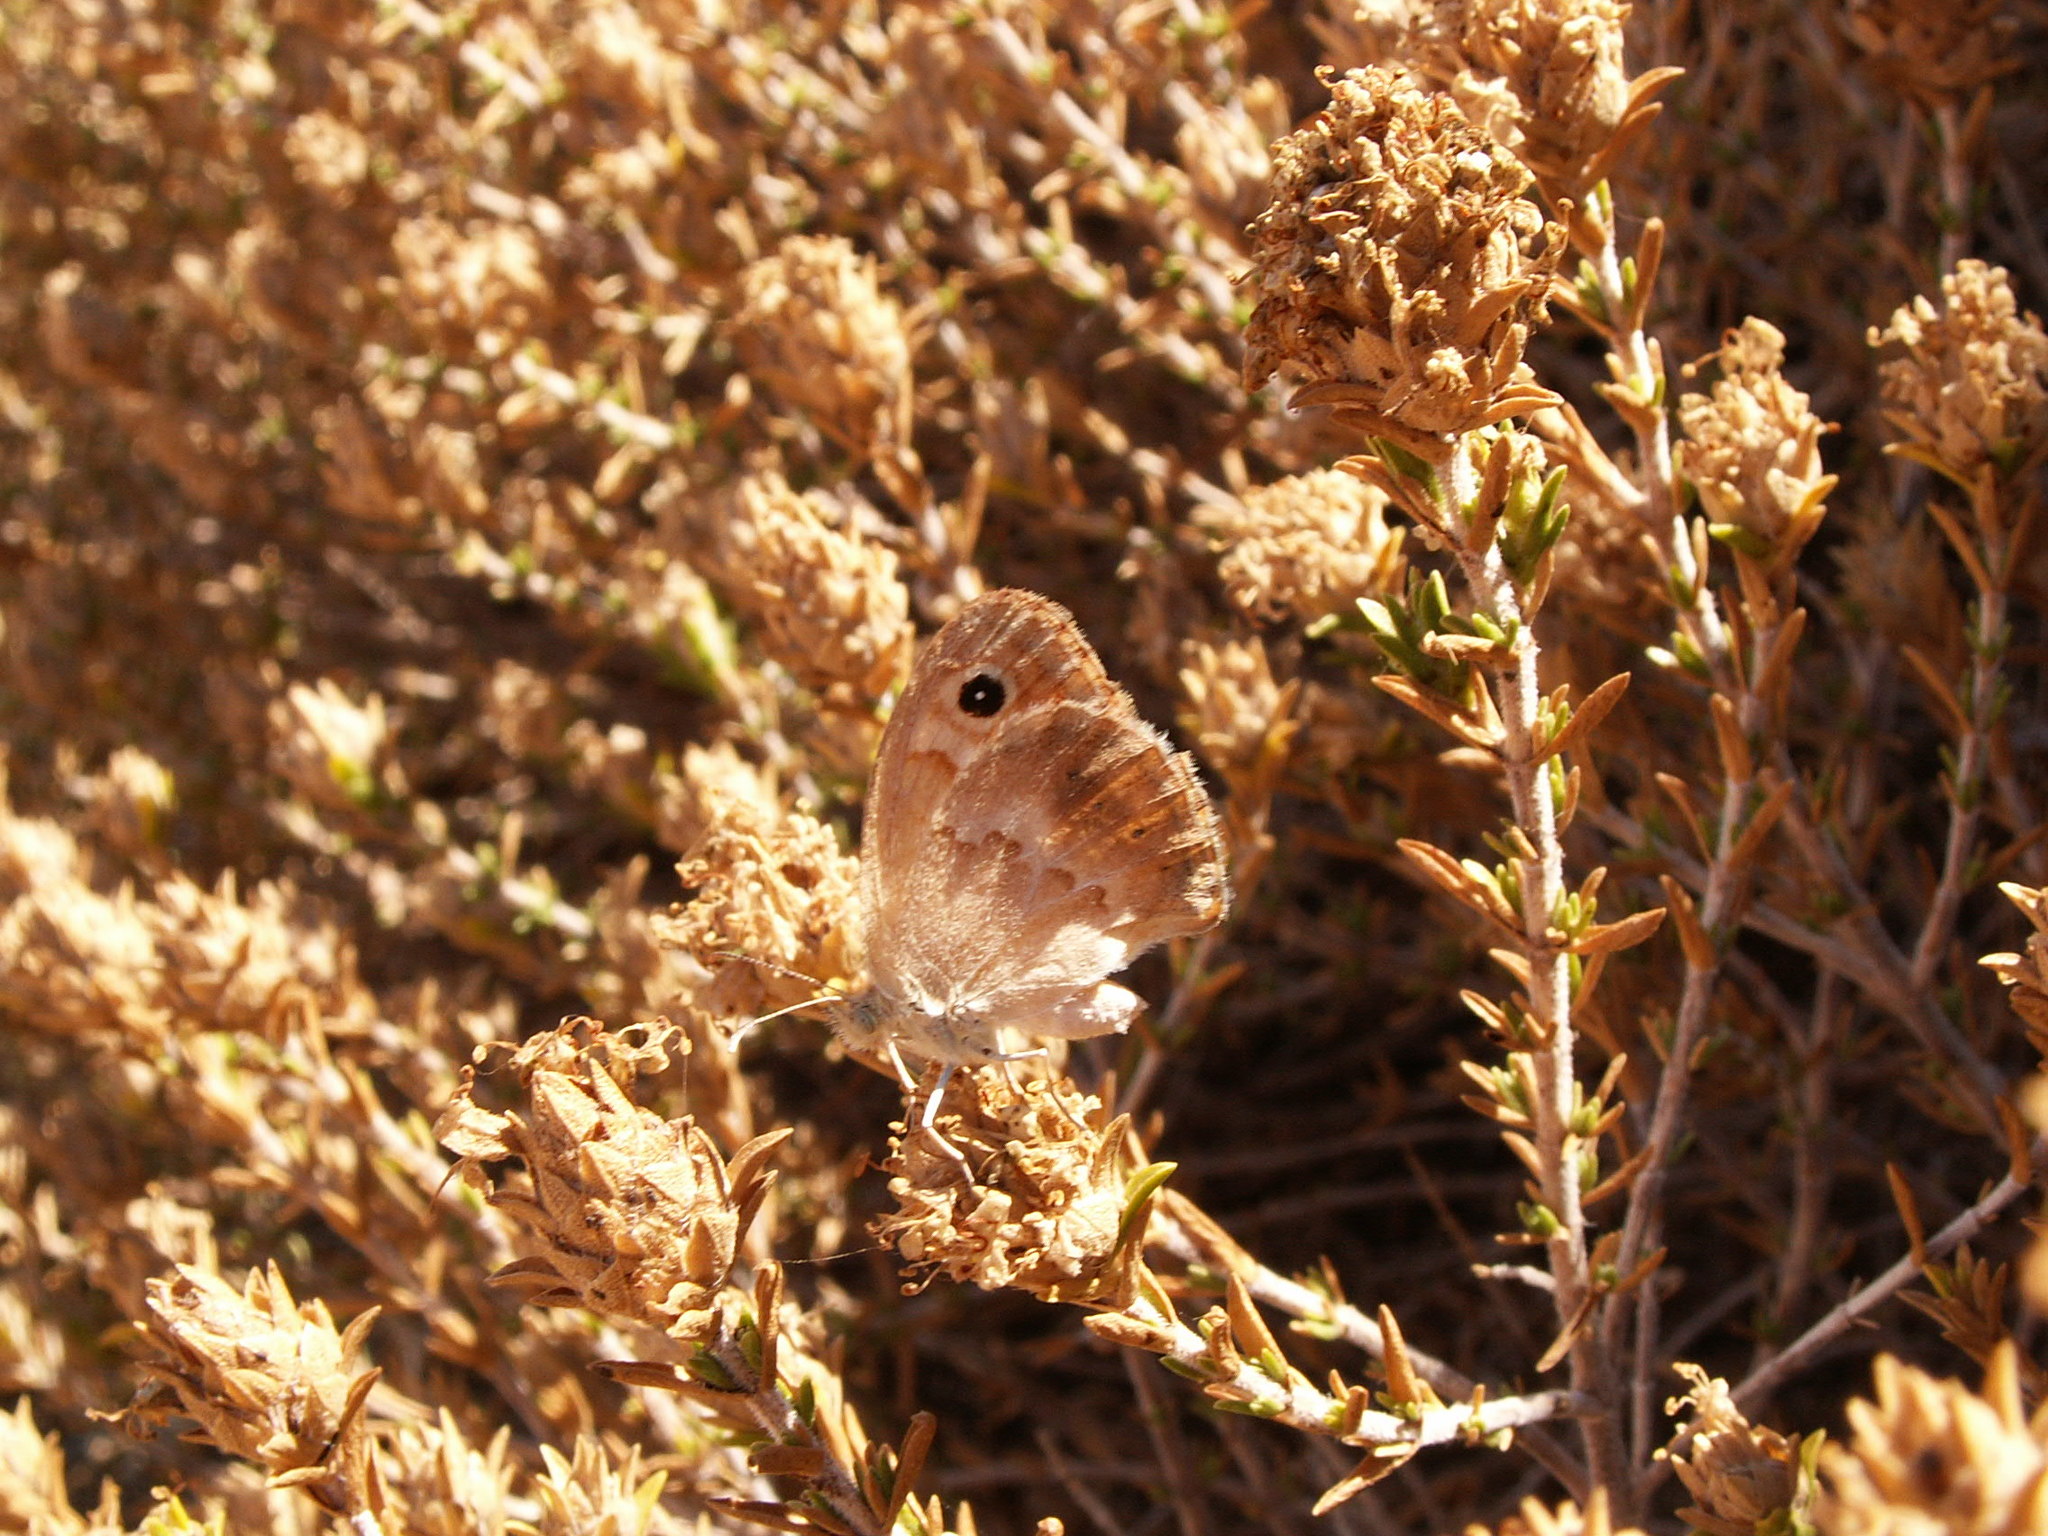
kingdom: Animalia
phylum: Arthropoda
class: Insecta
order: Lepidoptera
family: Nymphalidae
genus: Coenonympha
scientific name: Coenonympha pamphilus
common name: Small heath
